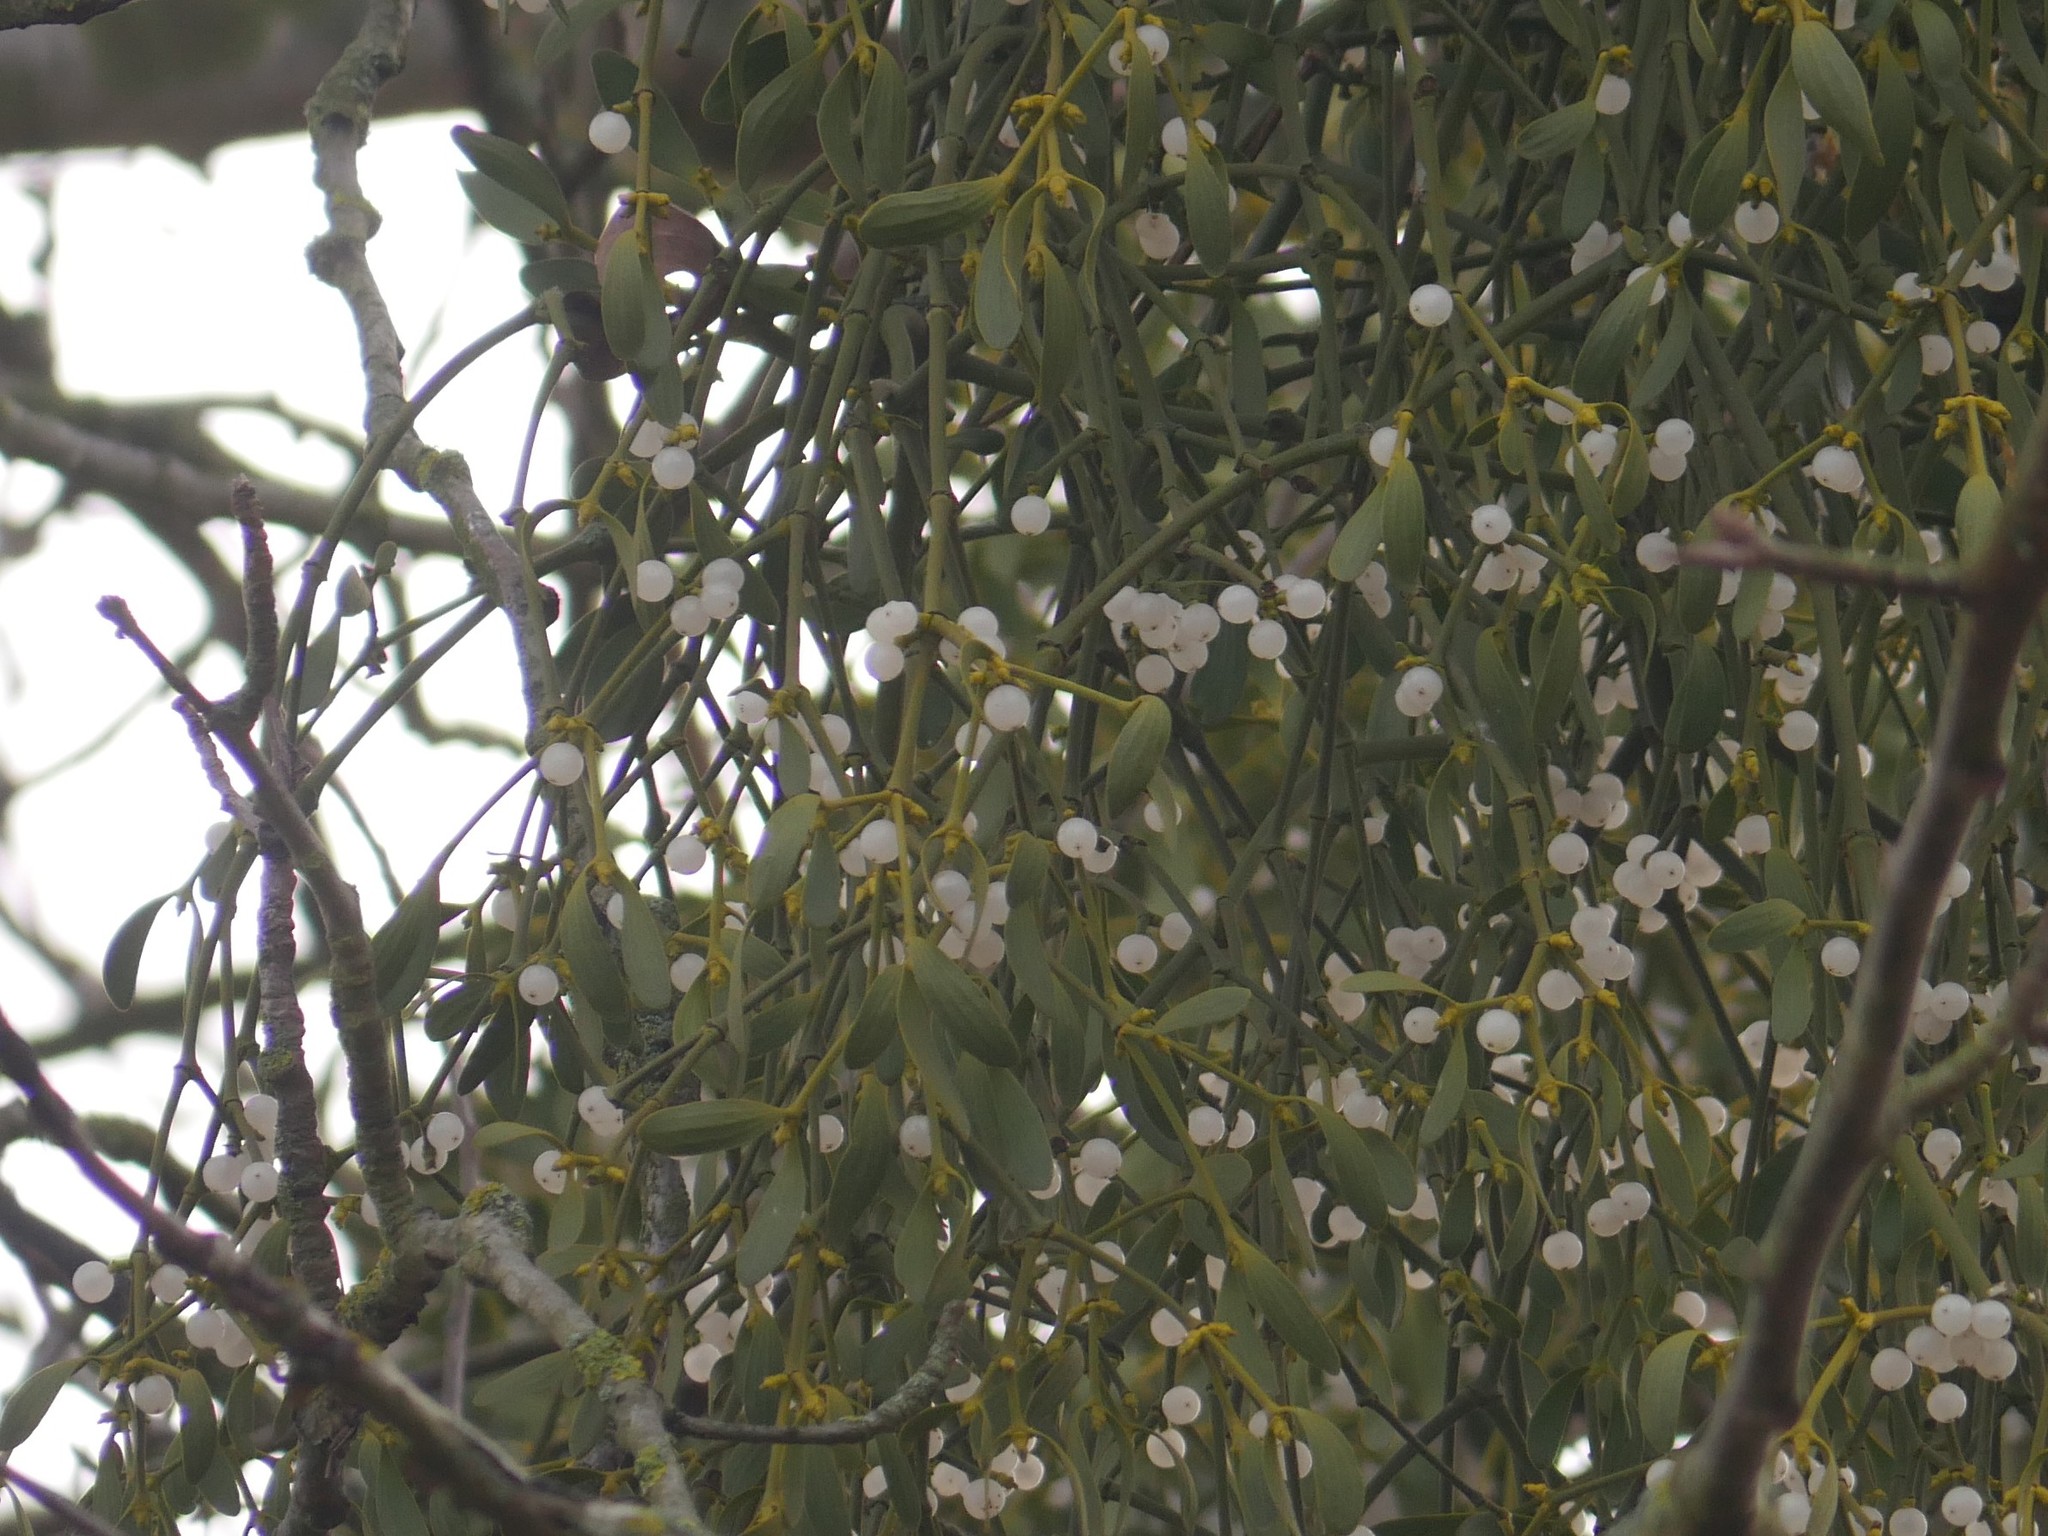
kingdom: Plantae
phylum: Tracheophyta
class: Magnoliopsida
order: Santalales
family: Viscaceae
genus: Viscum
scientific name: Viscum album
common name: Mistletoe
